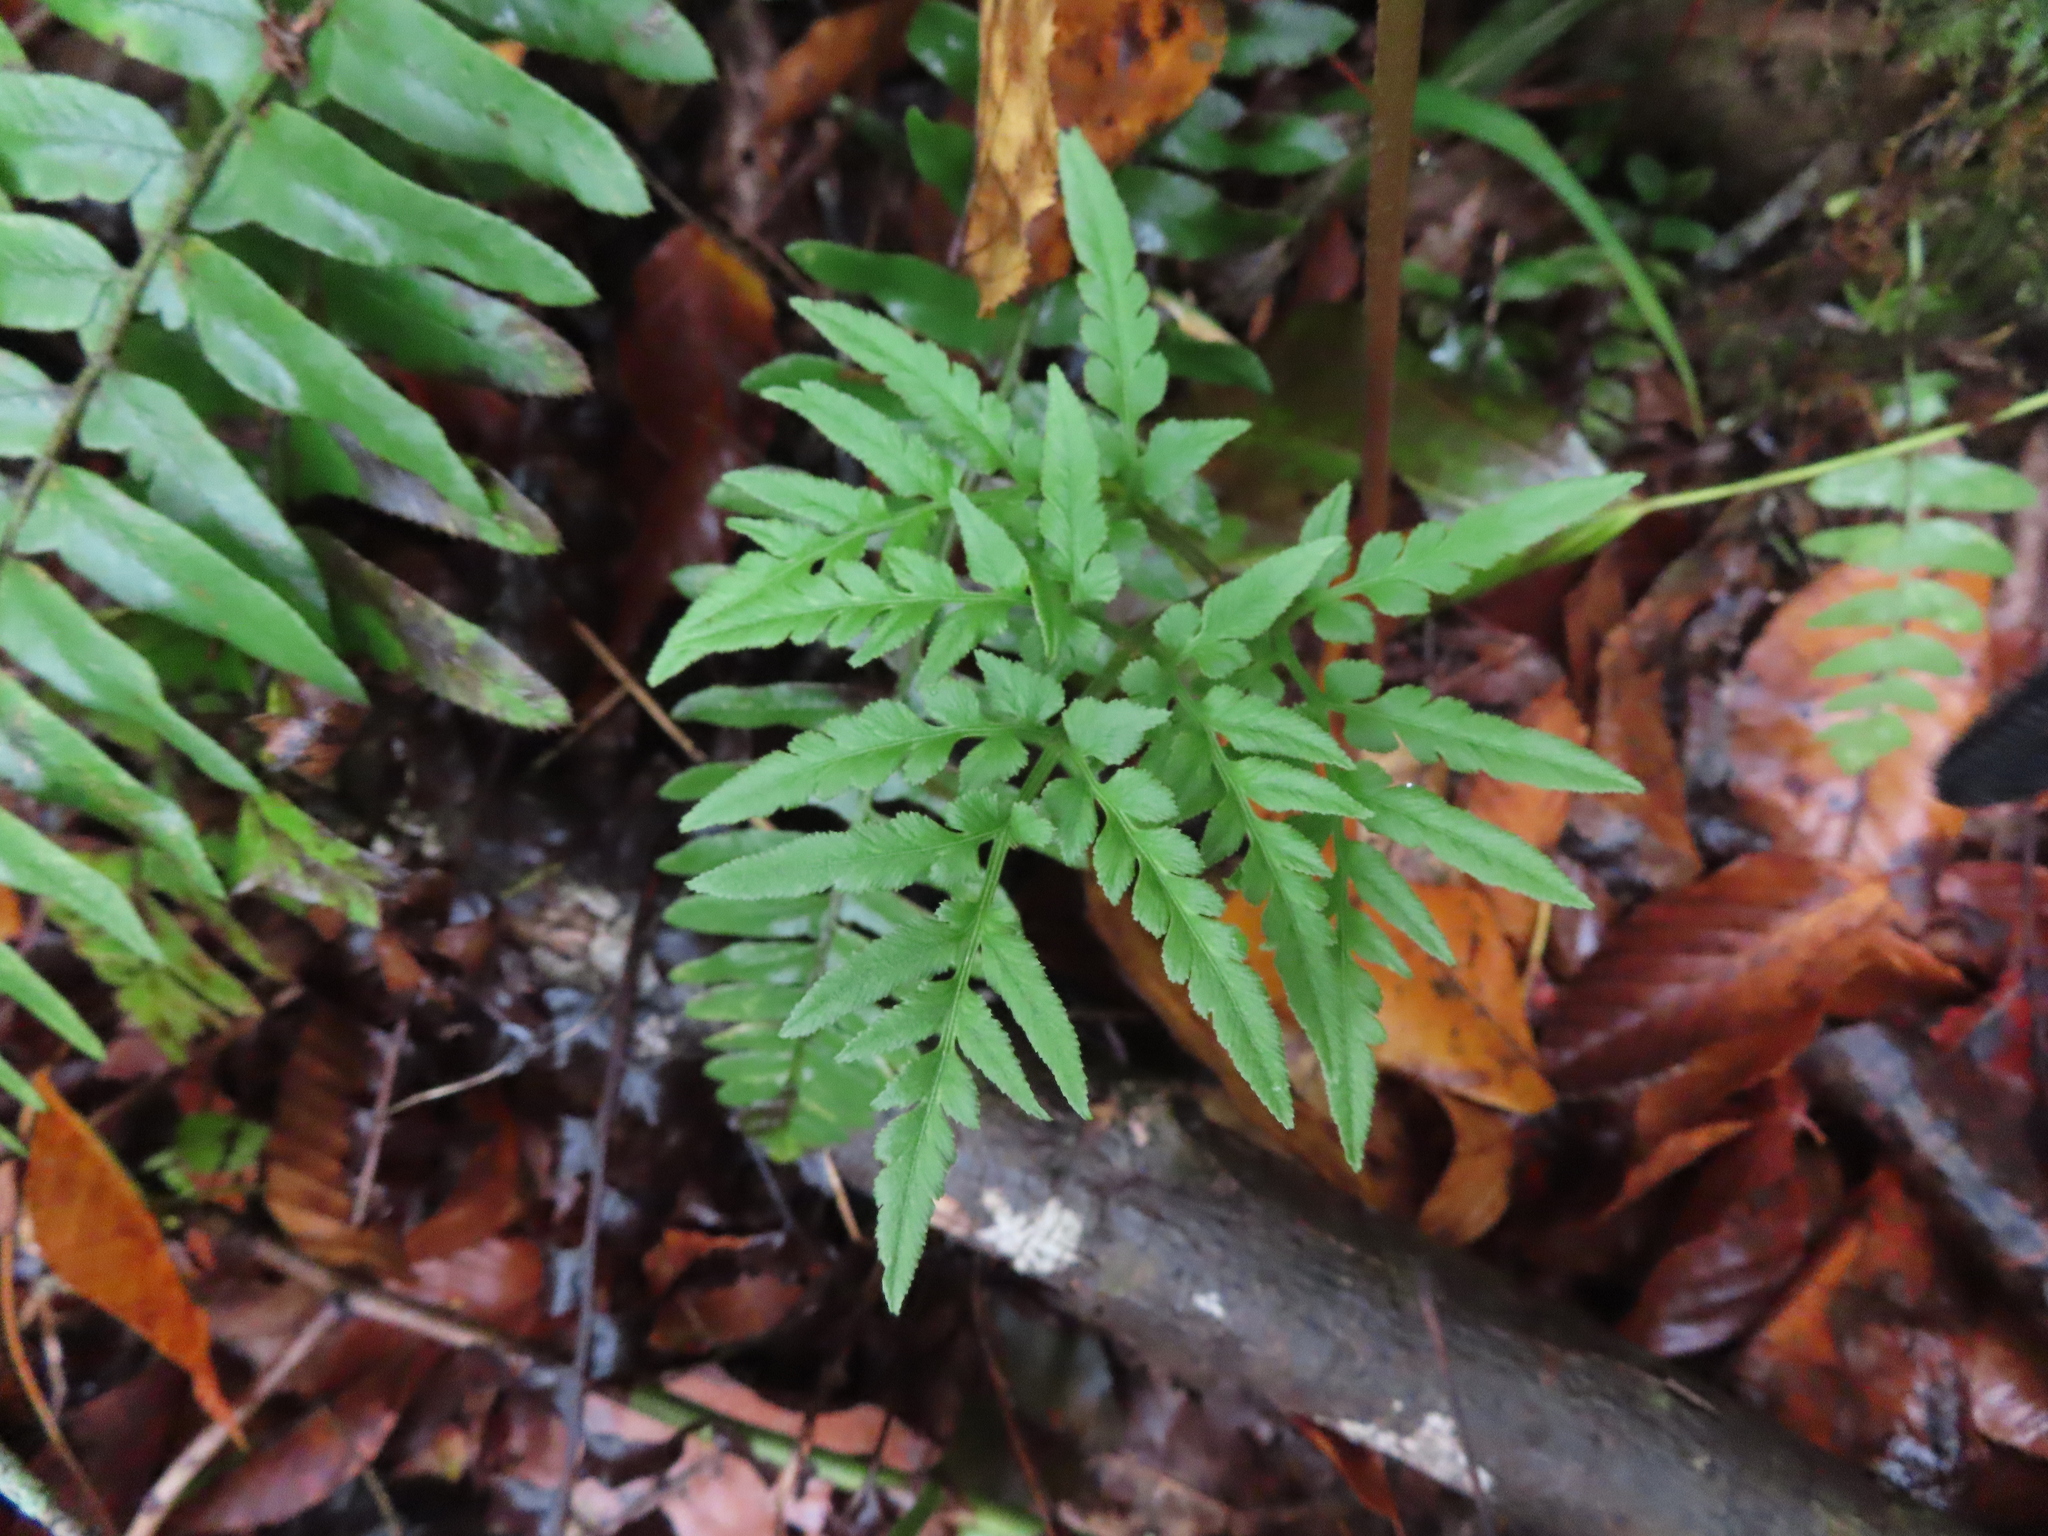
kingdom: Plantae
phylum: Tracheophyta
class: Polypodiopsida
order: Ophioglossales
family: Ophioglossaceae
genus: Sceptridium
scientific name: Sceptridium dissectum
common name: Cut-leaved grapefern
